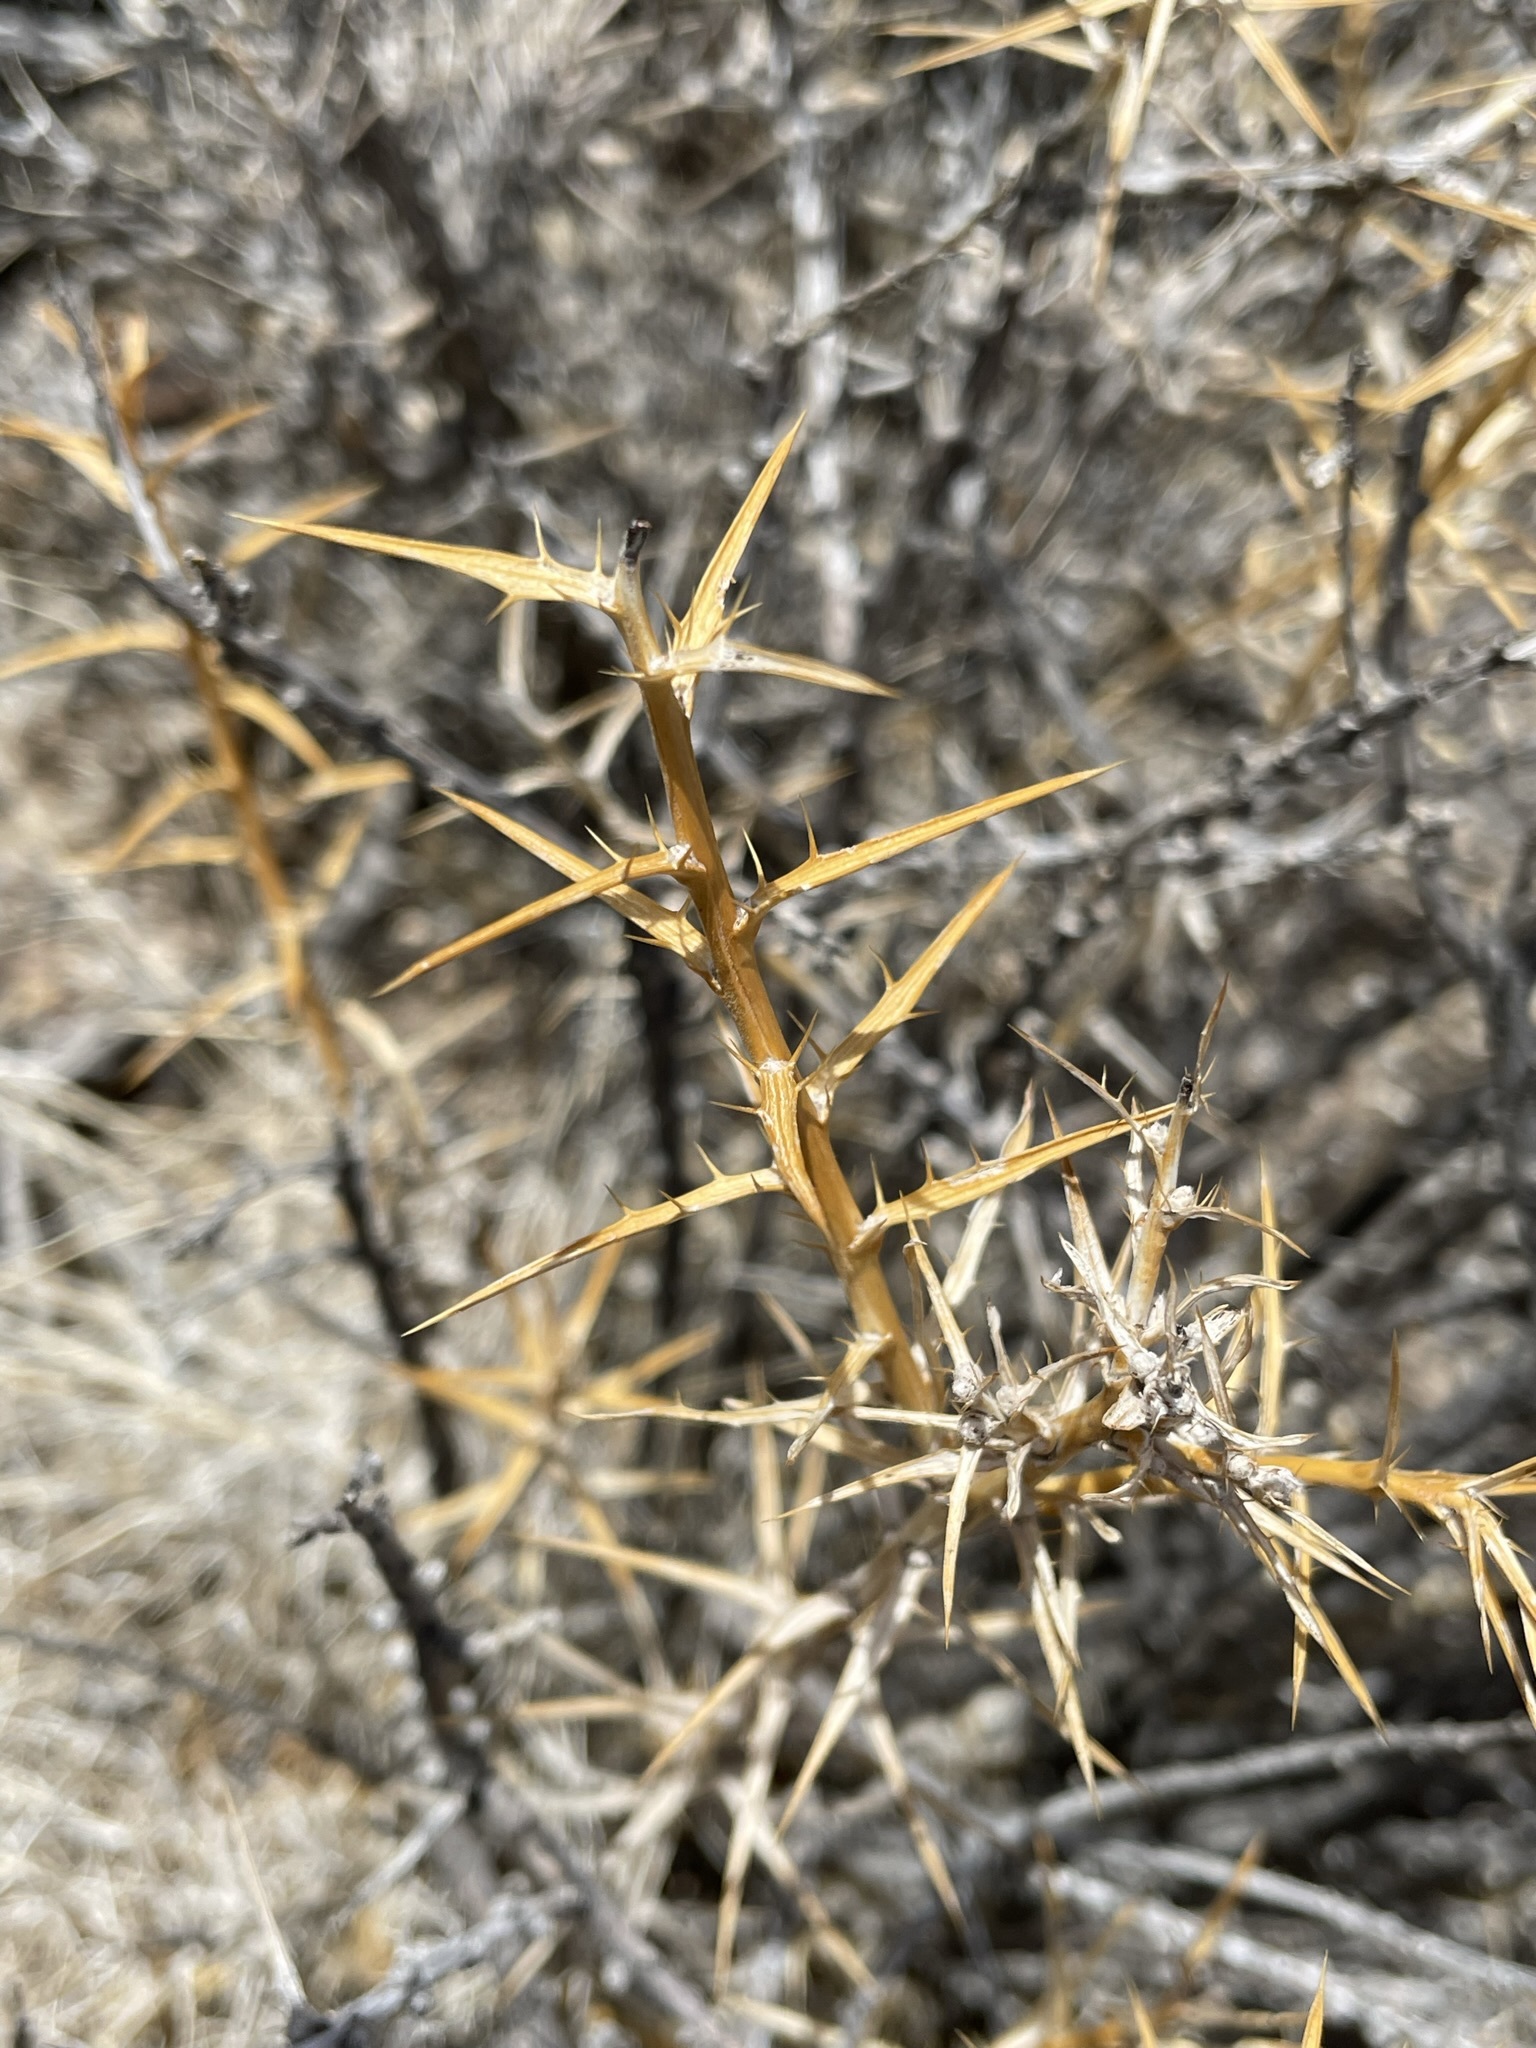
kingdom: Plantae
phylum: Tracheophyta
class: Magnoliopsida
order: Asterales
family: Asteraceae
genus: Hecastocleis
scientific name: Hecastocleis shockleyi
